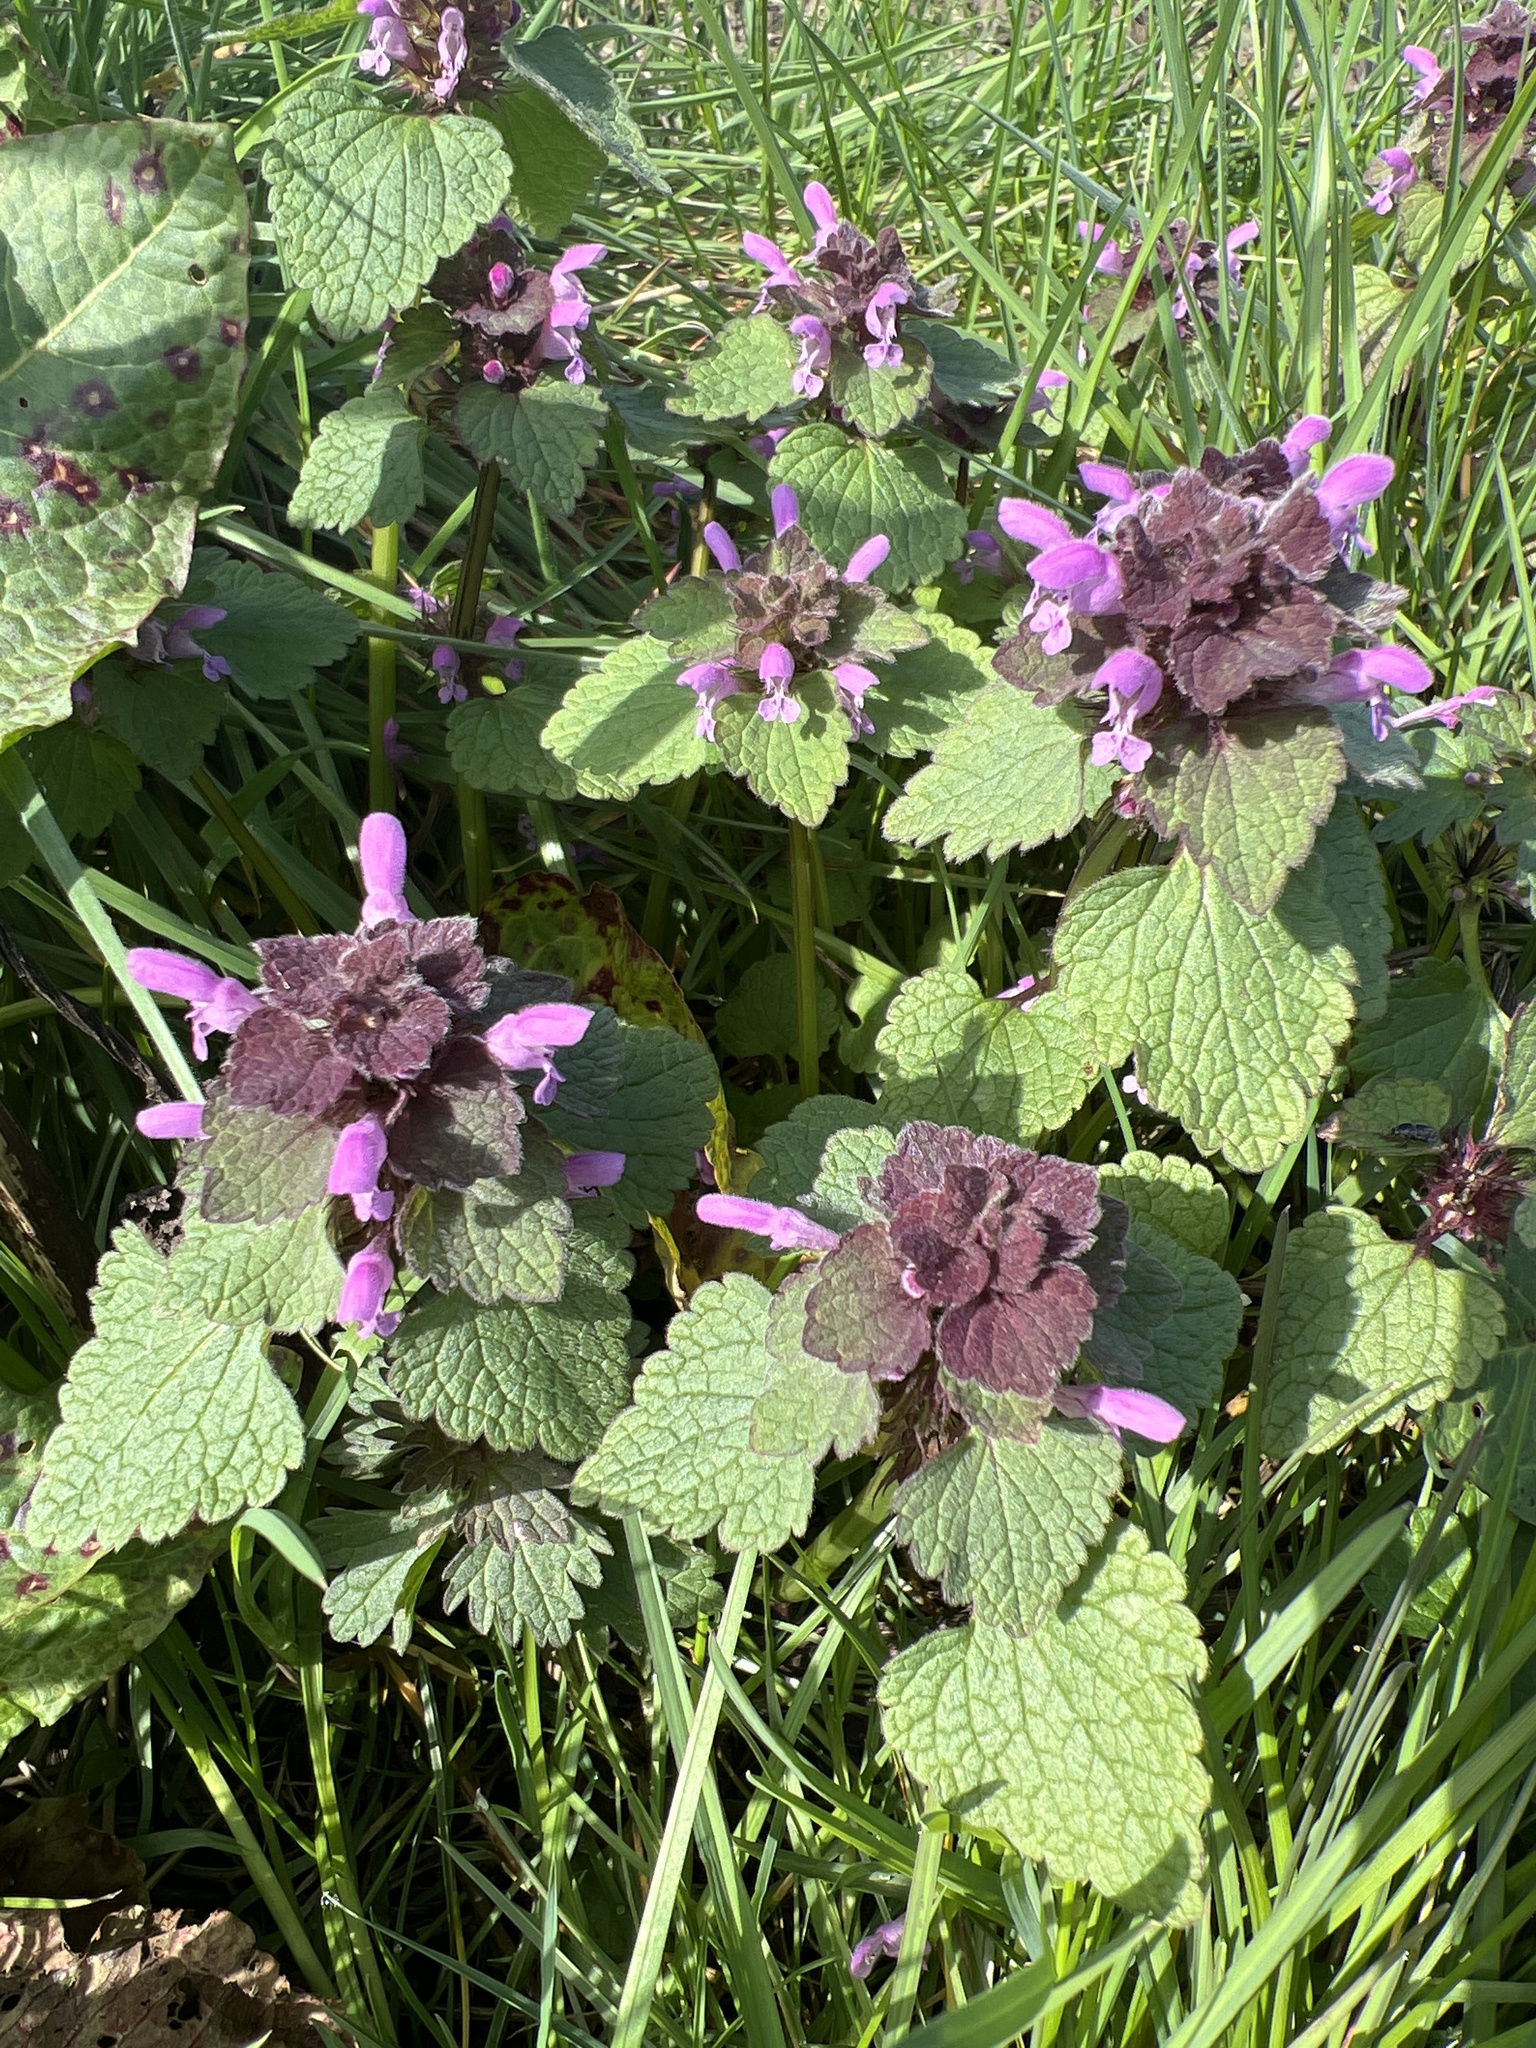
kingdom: Plantae
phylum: Tracheophyta
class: Magnoliopsida
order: Lamiales
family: Lamiaceae
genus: Lamium
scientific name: Lamium purpureum
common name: Red dead-nettle
